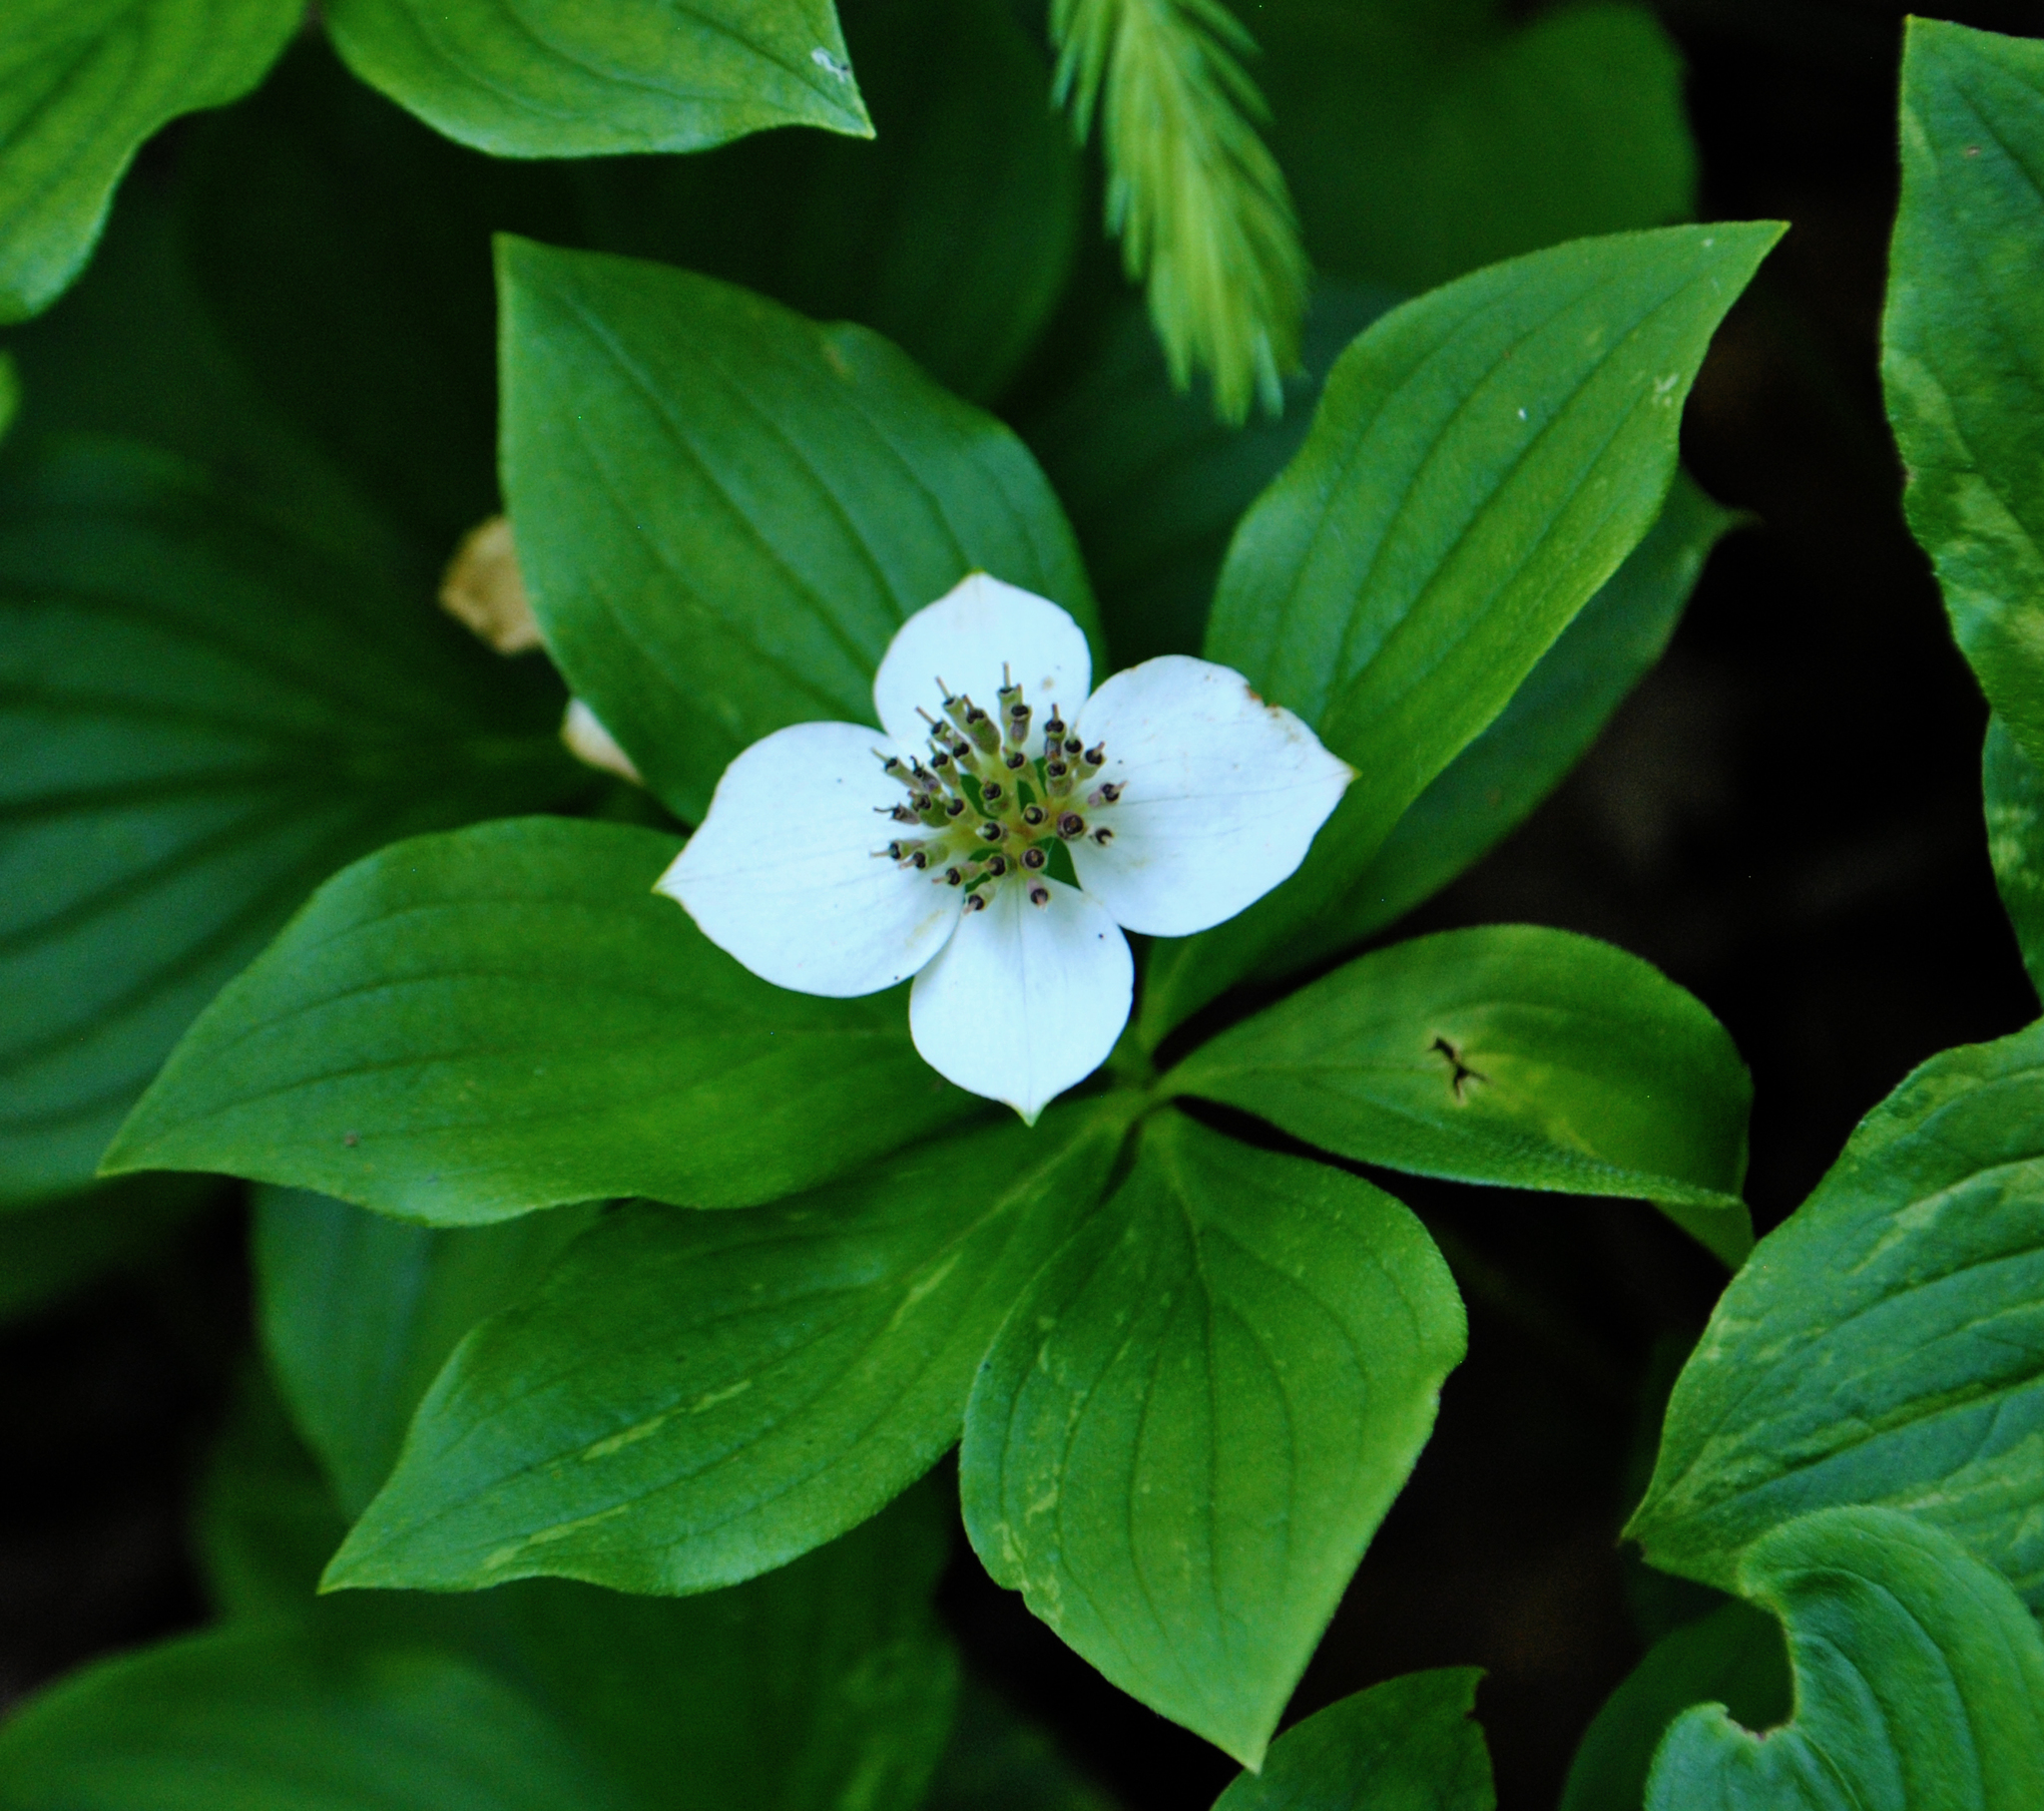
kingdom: Plantae
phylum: Tracheophyta
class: Magnoliopsida
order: Cornales
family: Cornaceae
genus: Cornus
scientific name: Cornus canadensis
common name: Creeping dogwood
